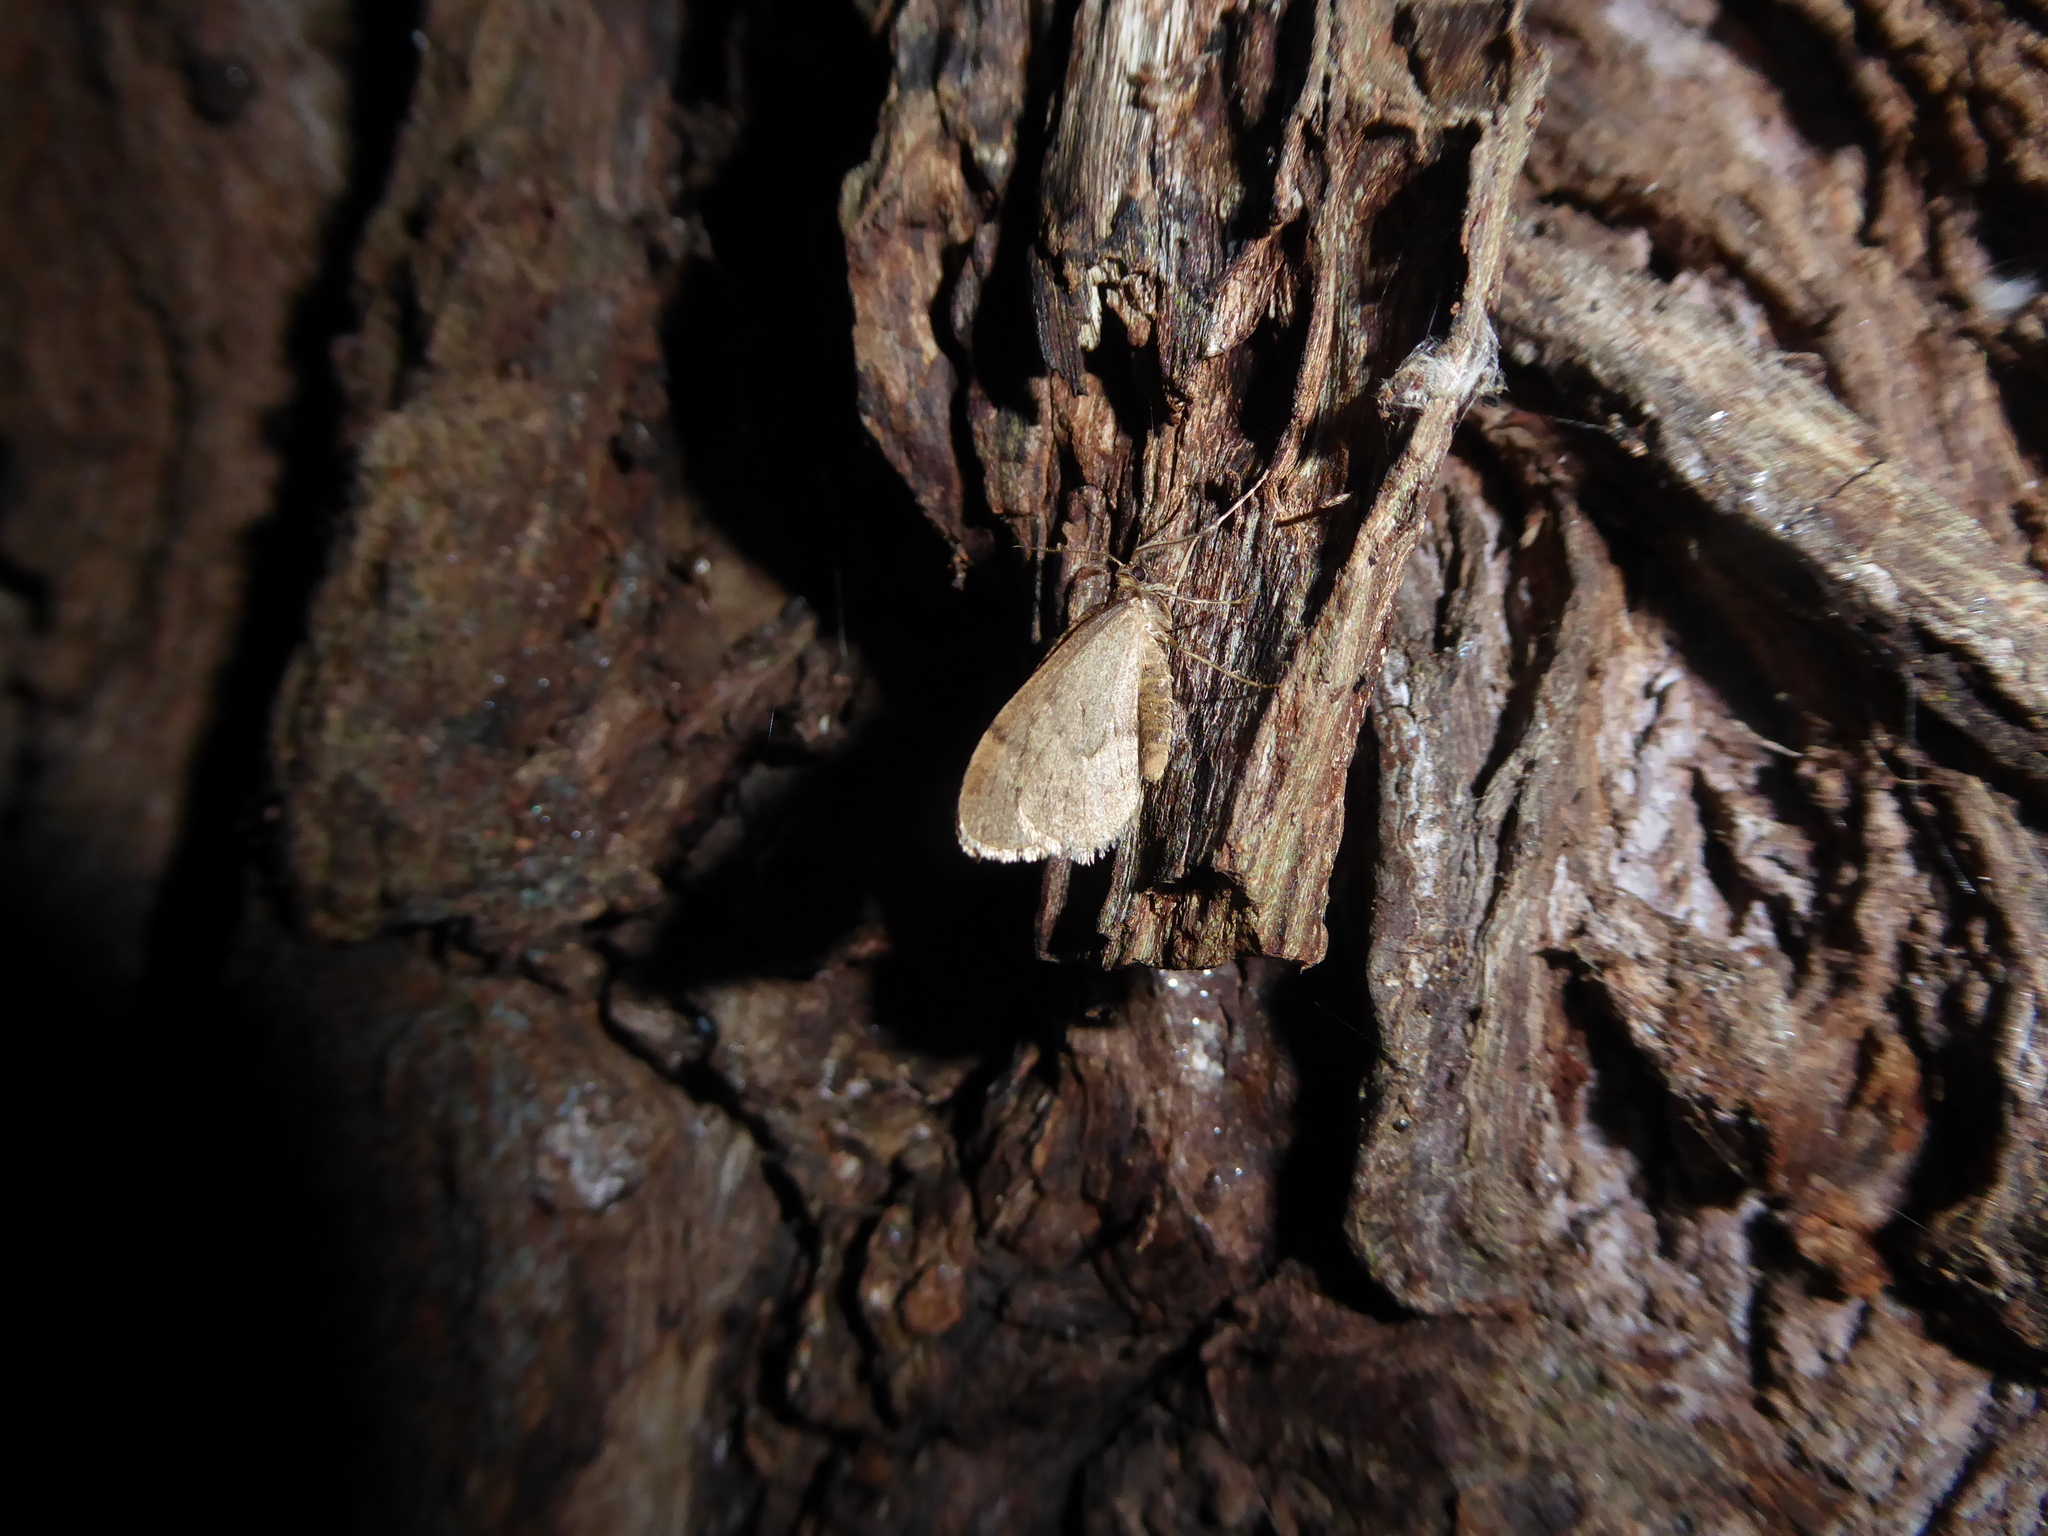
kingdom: Animalia
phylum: Arthropoda
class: Insecta
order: Lepidoptera
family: Geometridae
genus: Operophtera
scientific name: Operophtera brumata
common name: Winter moth
